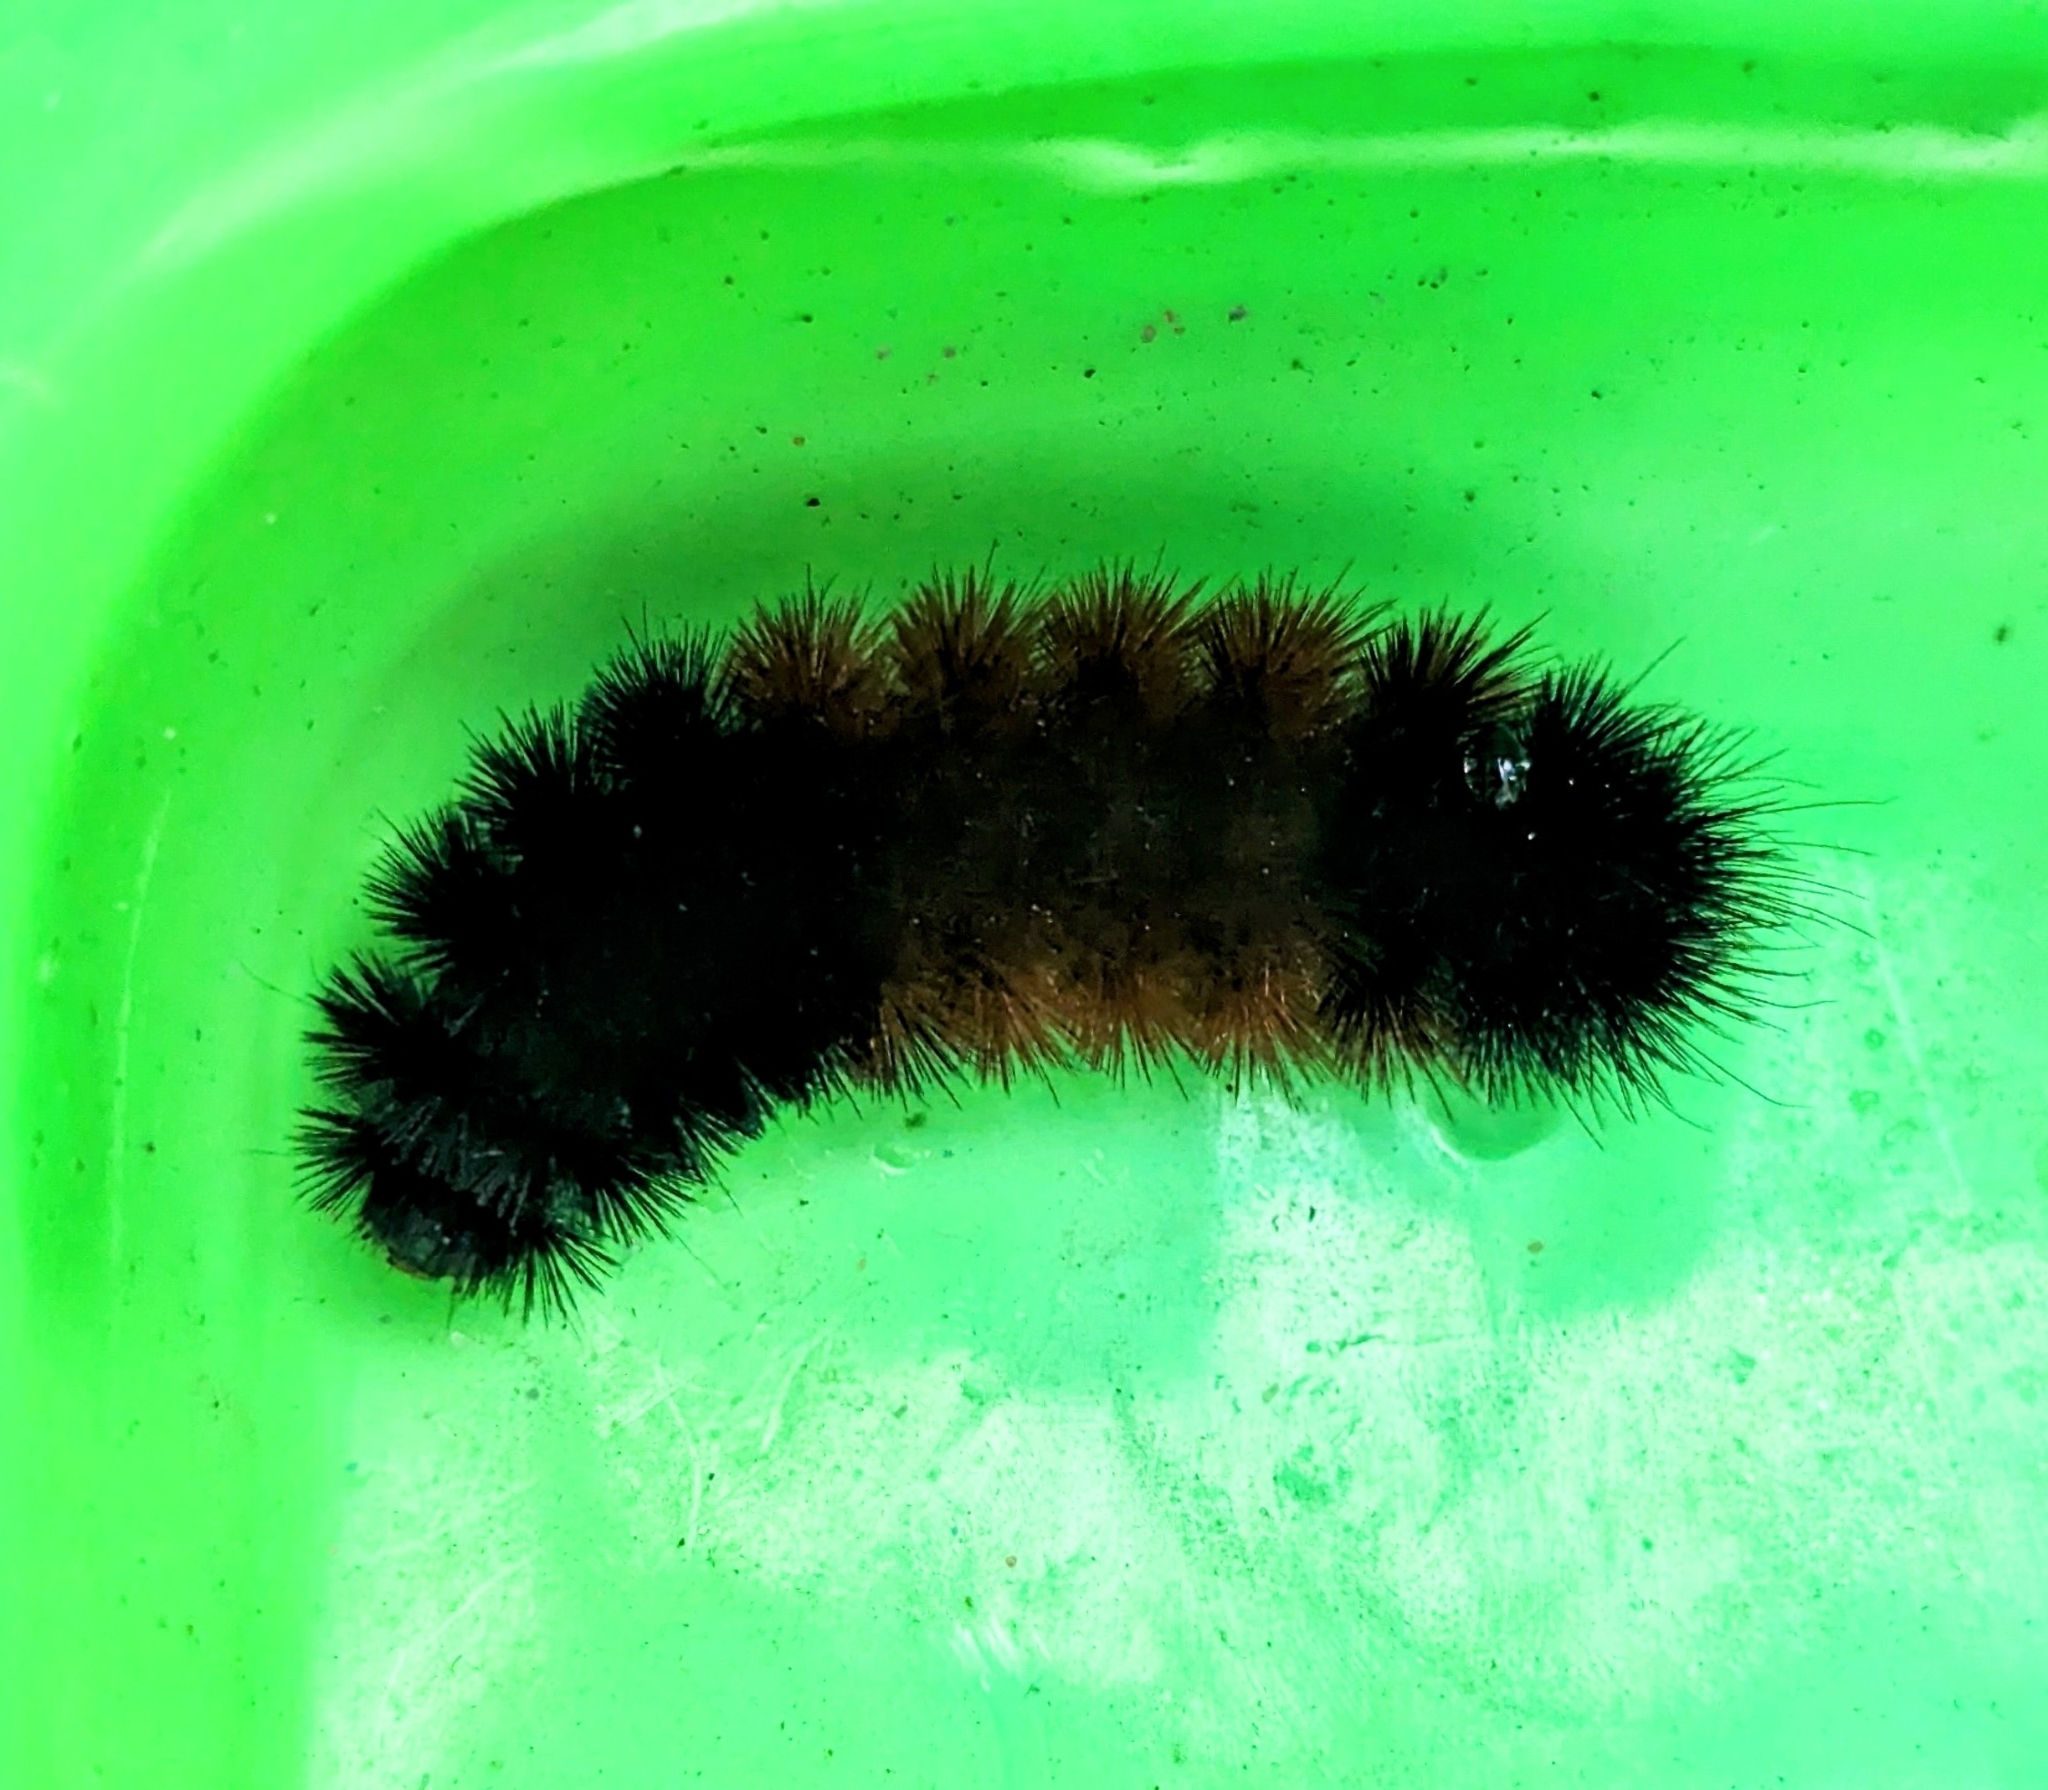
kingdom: Animalia
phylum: Arthropoda
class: Insecta
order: Lepidoptera
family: Erebidae
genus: Pyrrharctia
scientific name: Pyrrharctia isabella
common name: Isabella tiger moth
